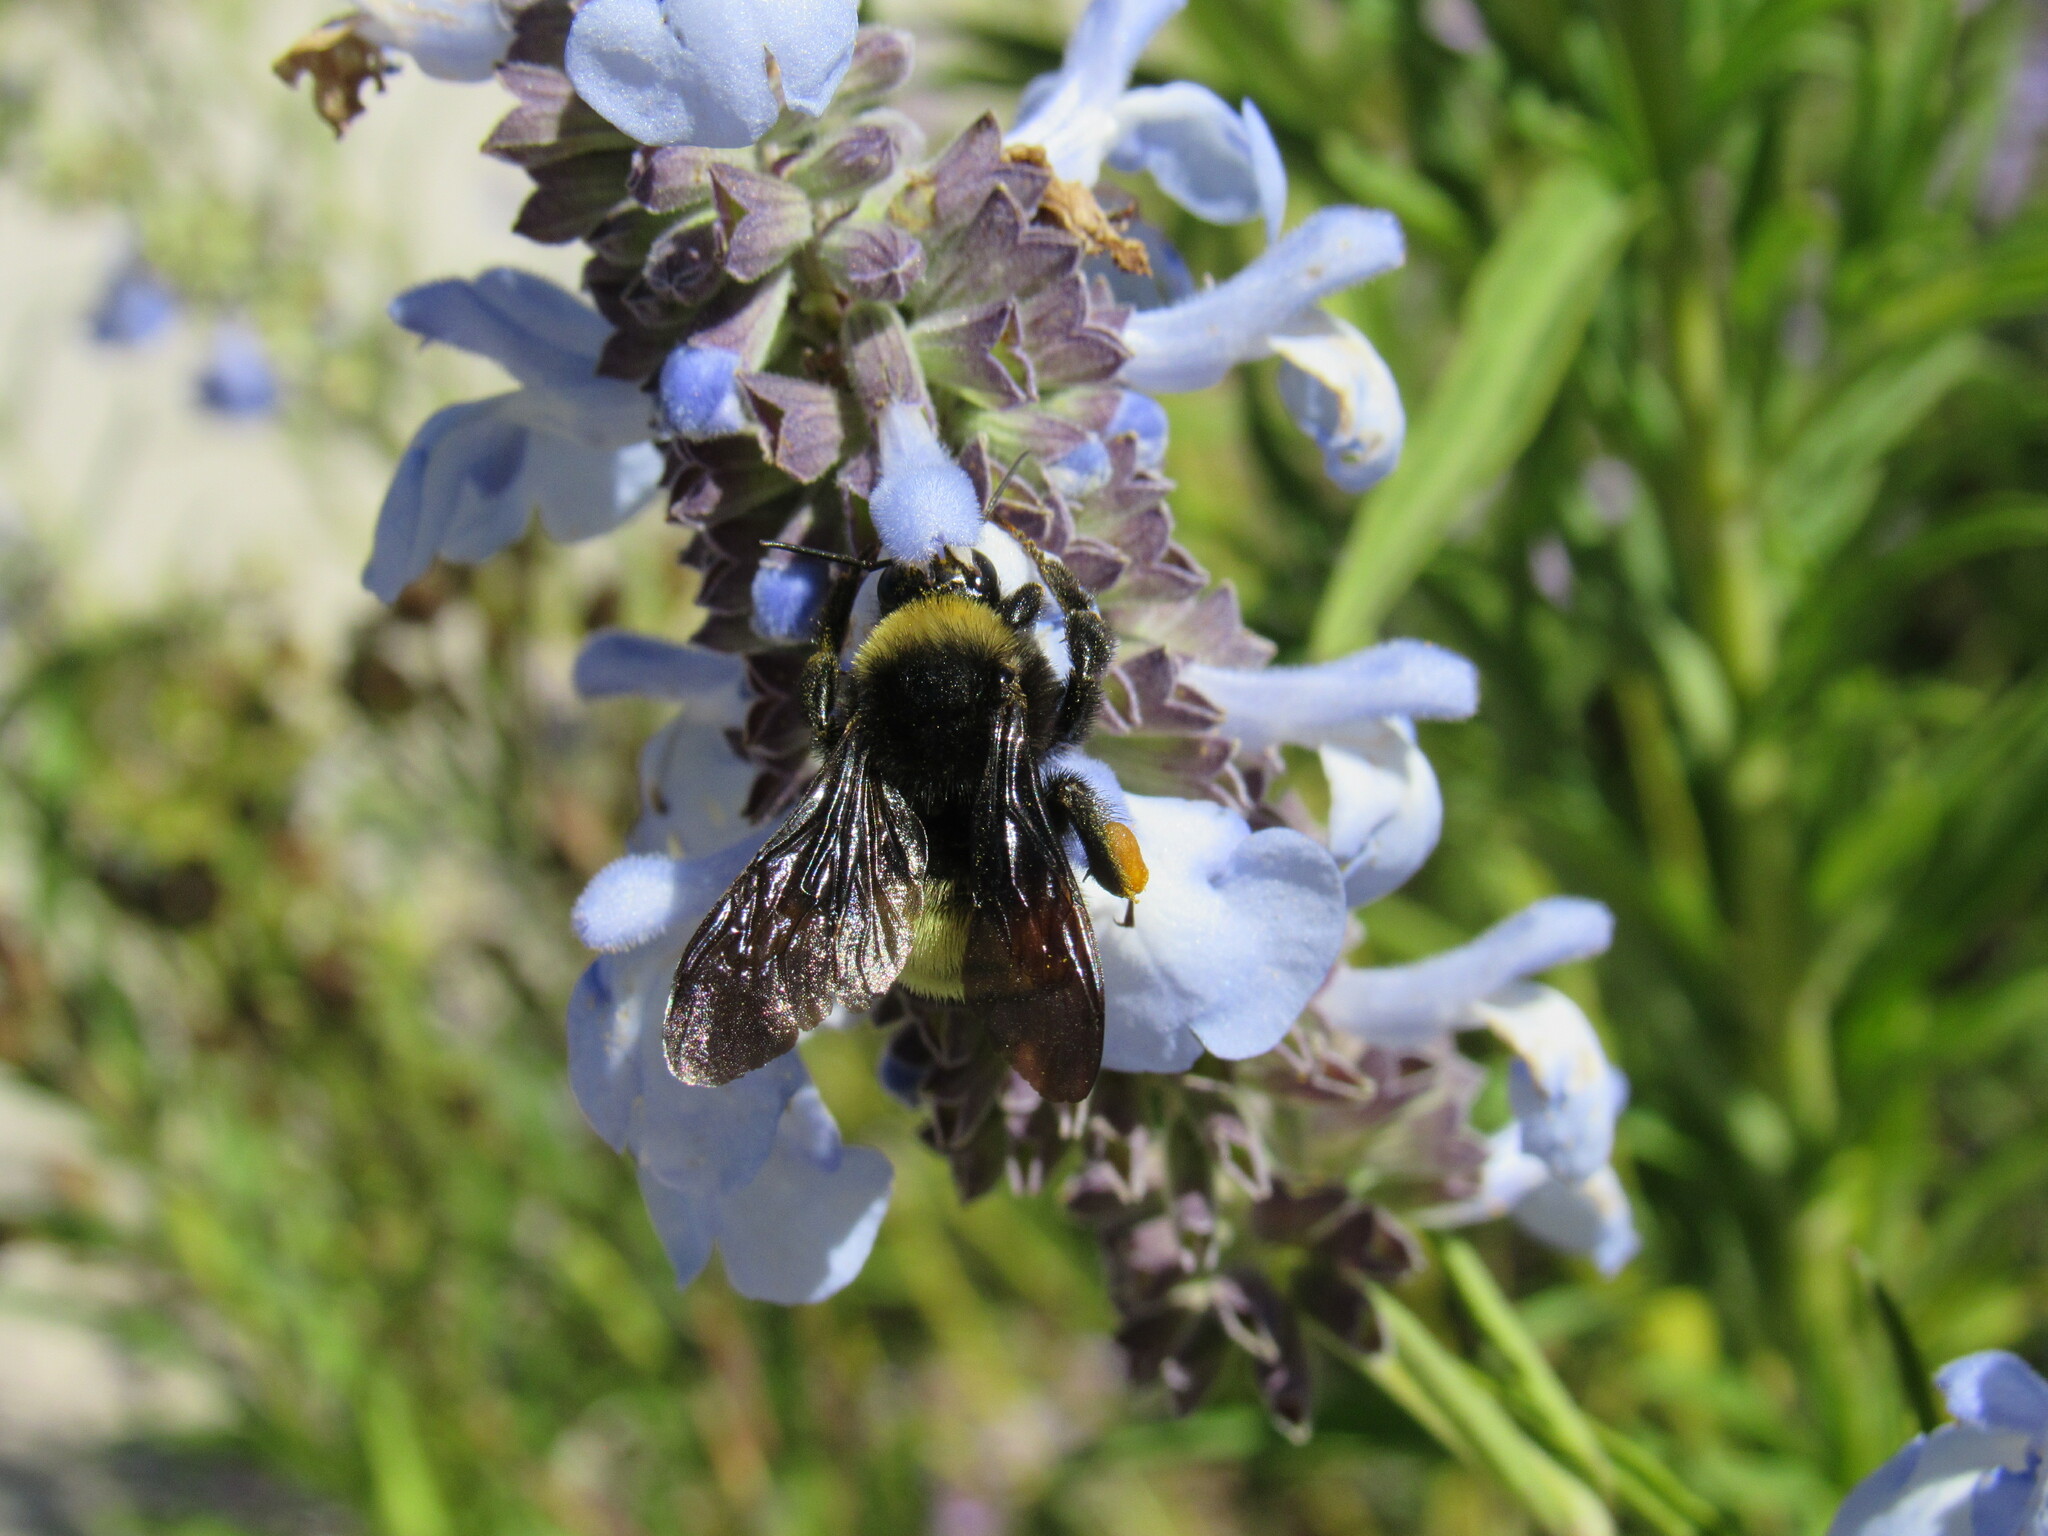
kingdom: Animalia
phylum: Arthropoda
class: Insecta
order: Hymenoptera
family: Apidae
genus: Bombus
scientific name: Bombus pensylvanicus
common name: Bumble bee
